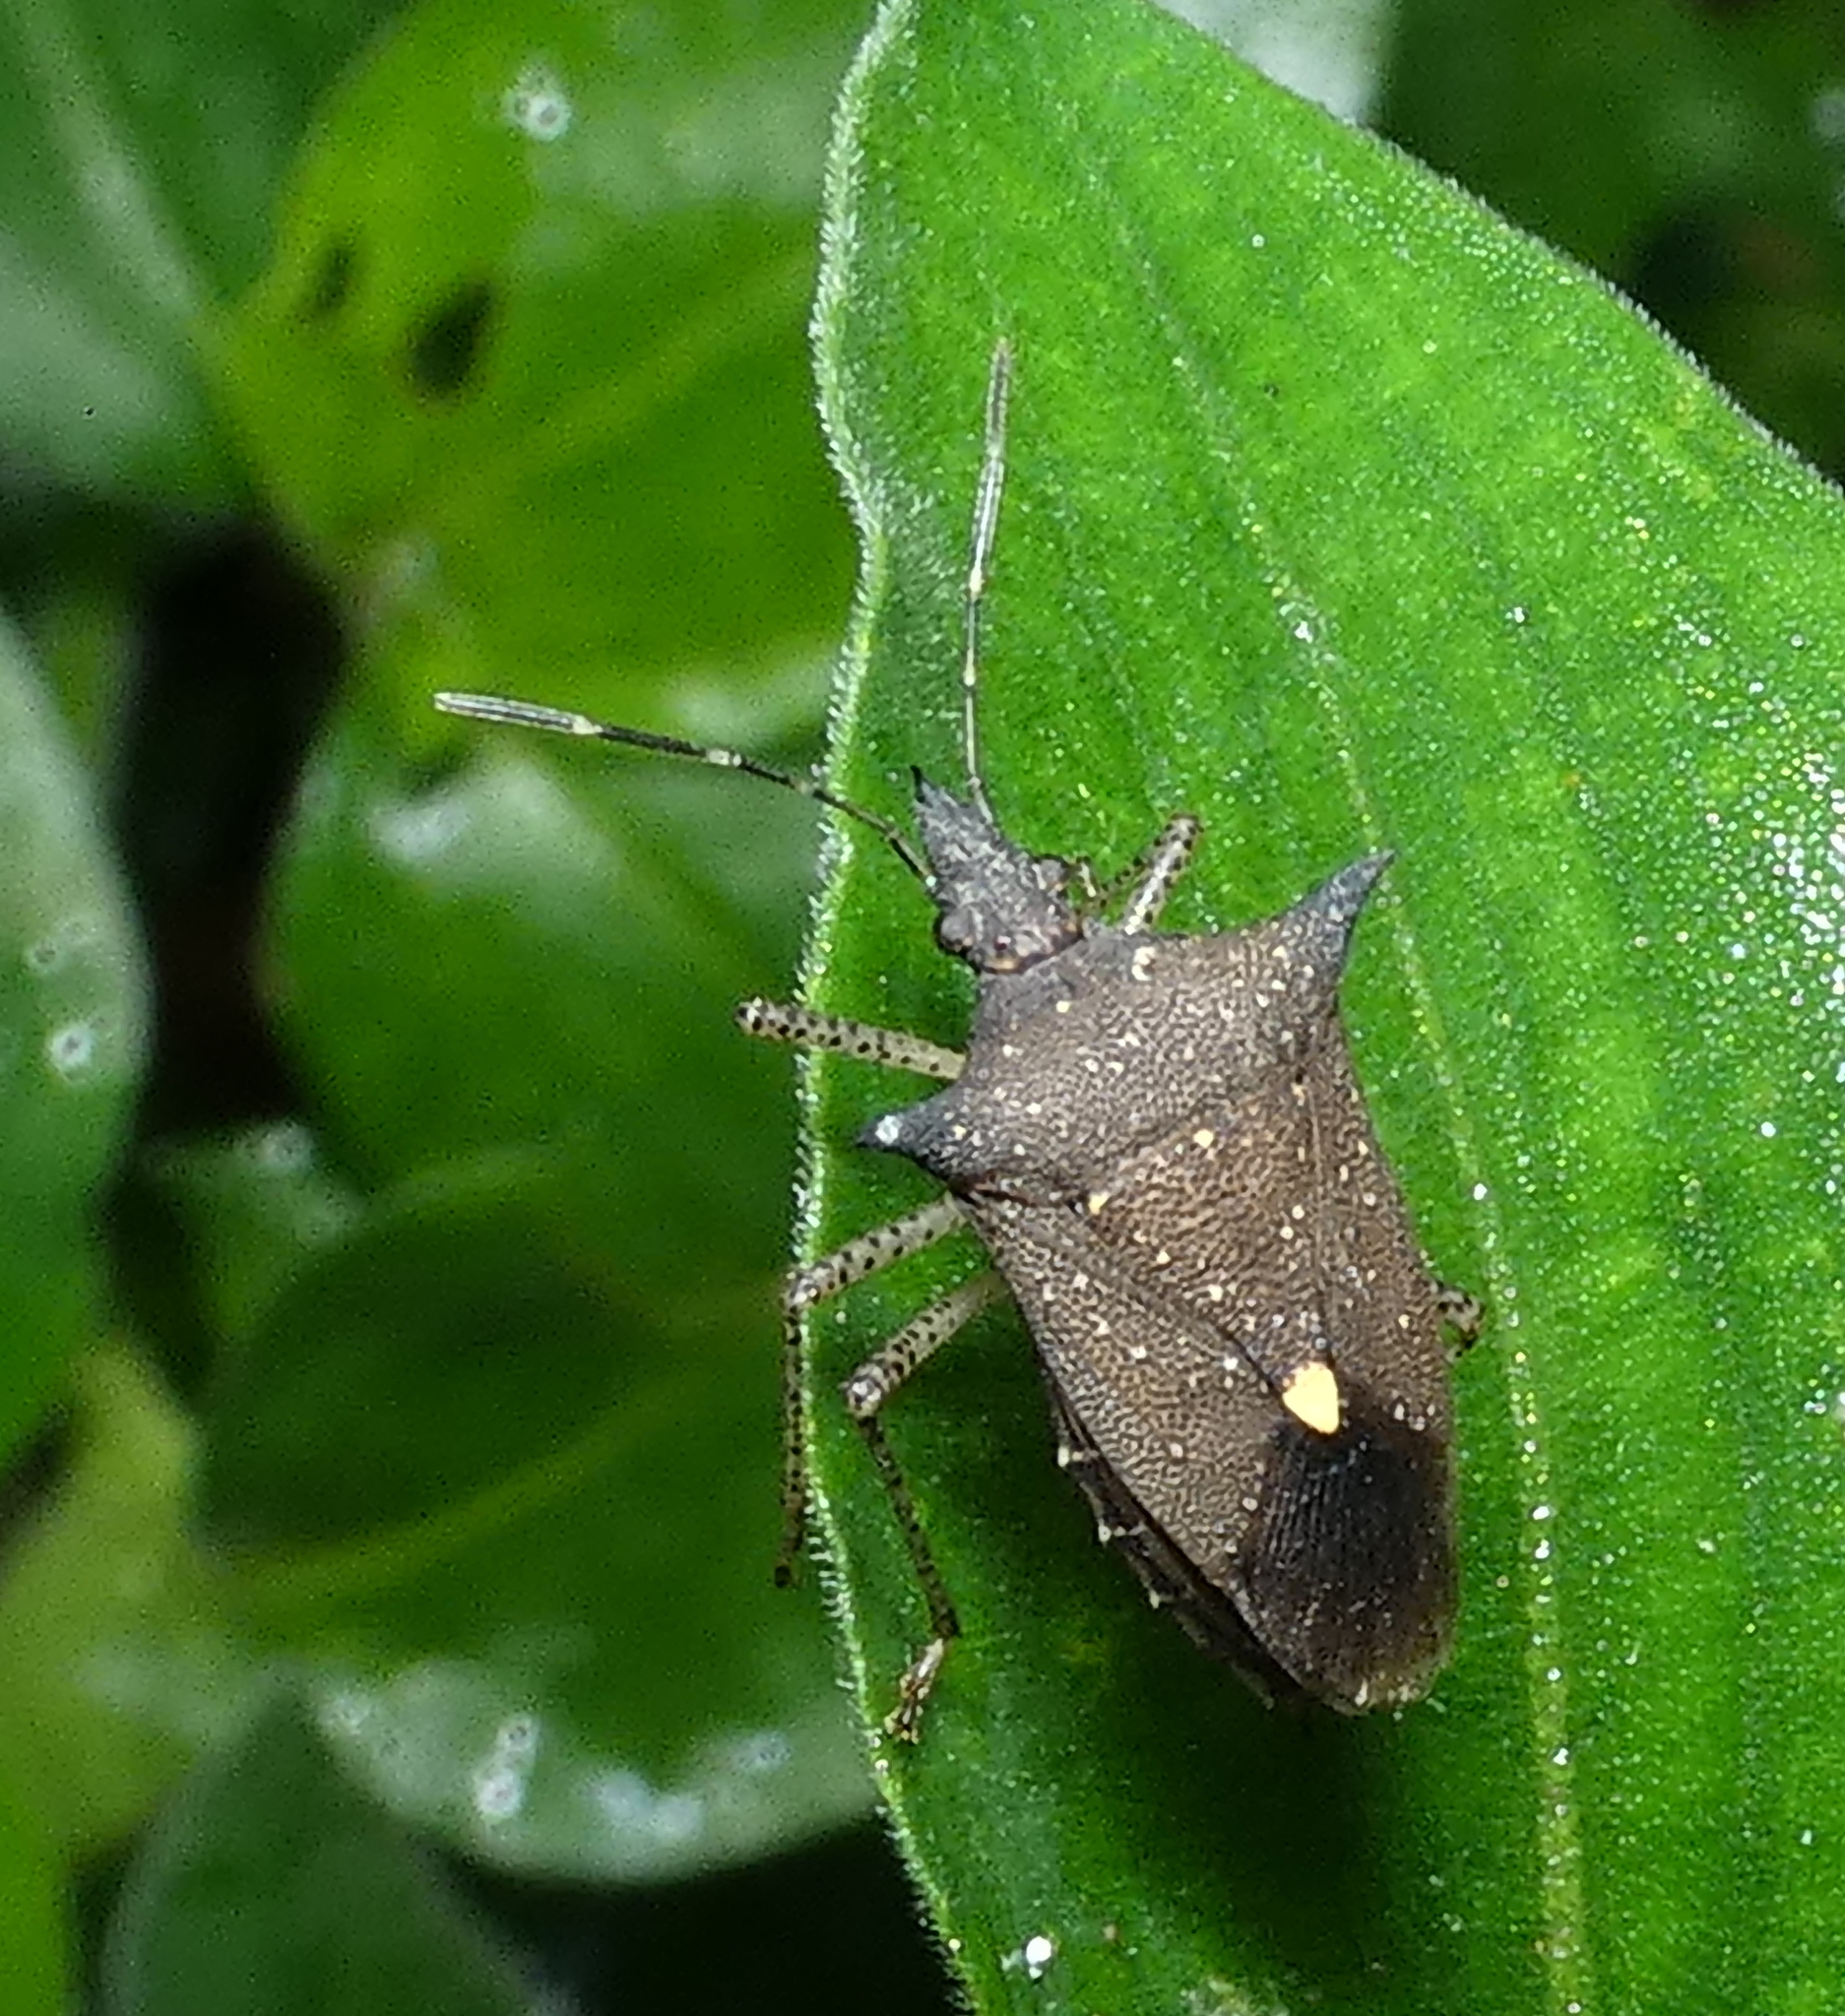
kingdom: Animalia
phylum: Arthropoda
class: Insecta
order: Hemiptera
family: Pentatomidae
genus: Proxys
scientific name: Proxys albopunctulatus
